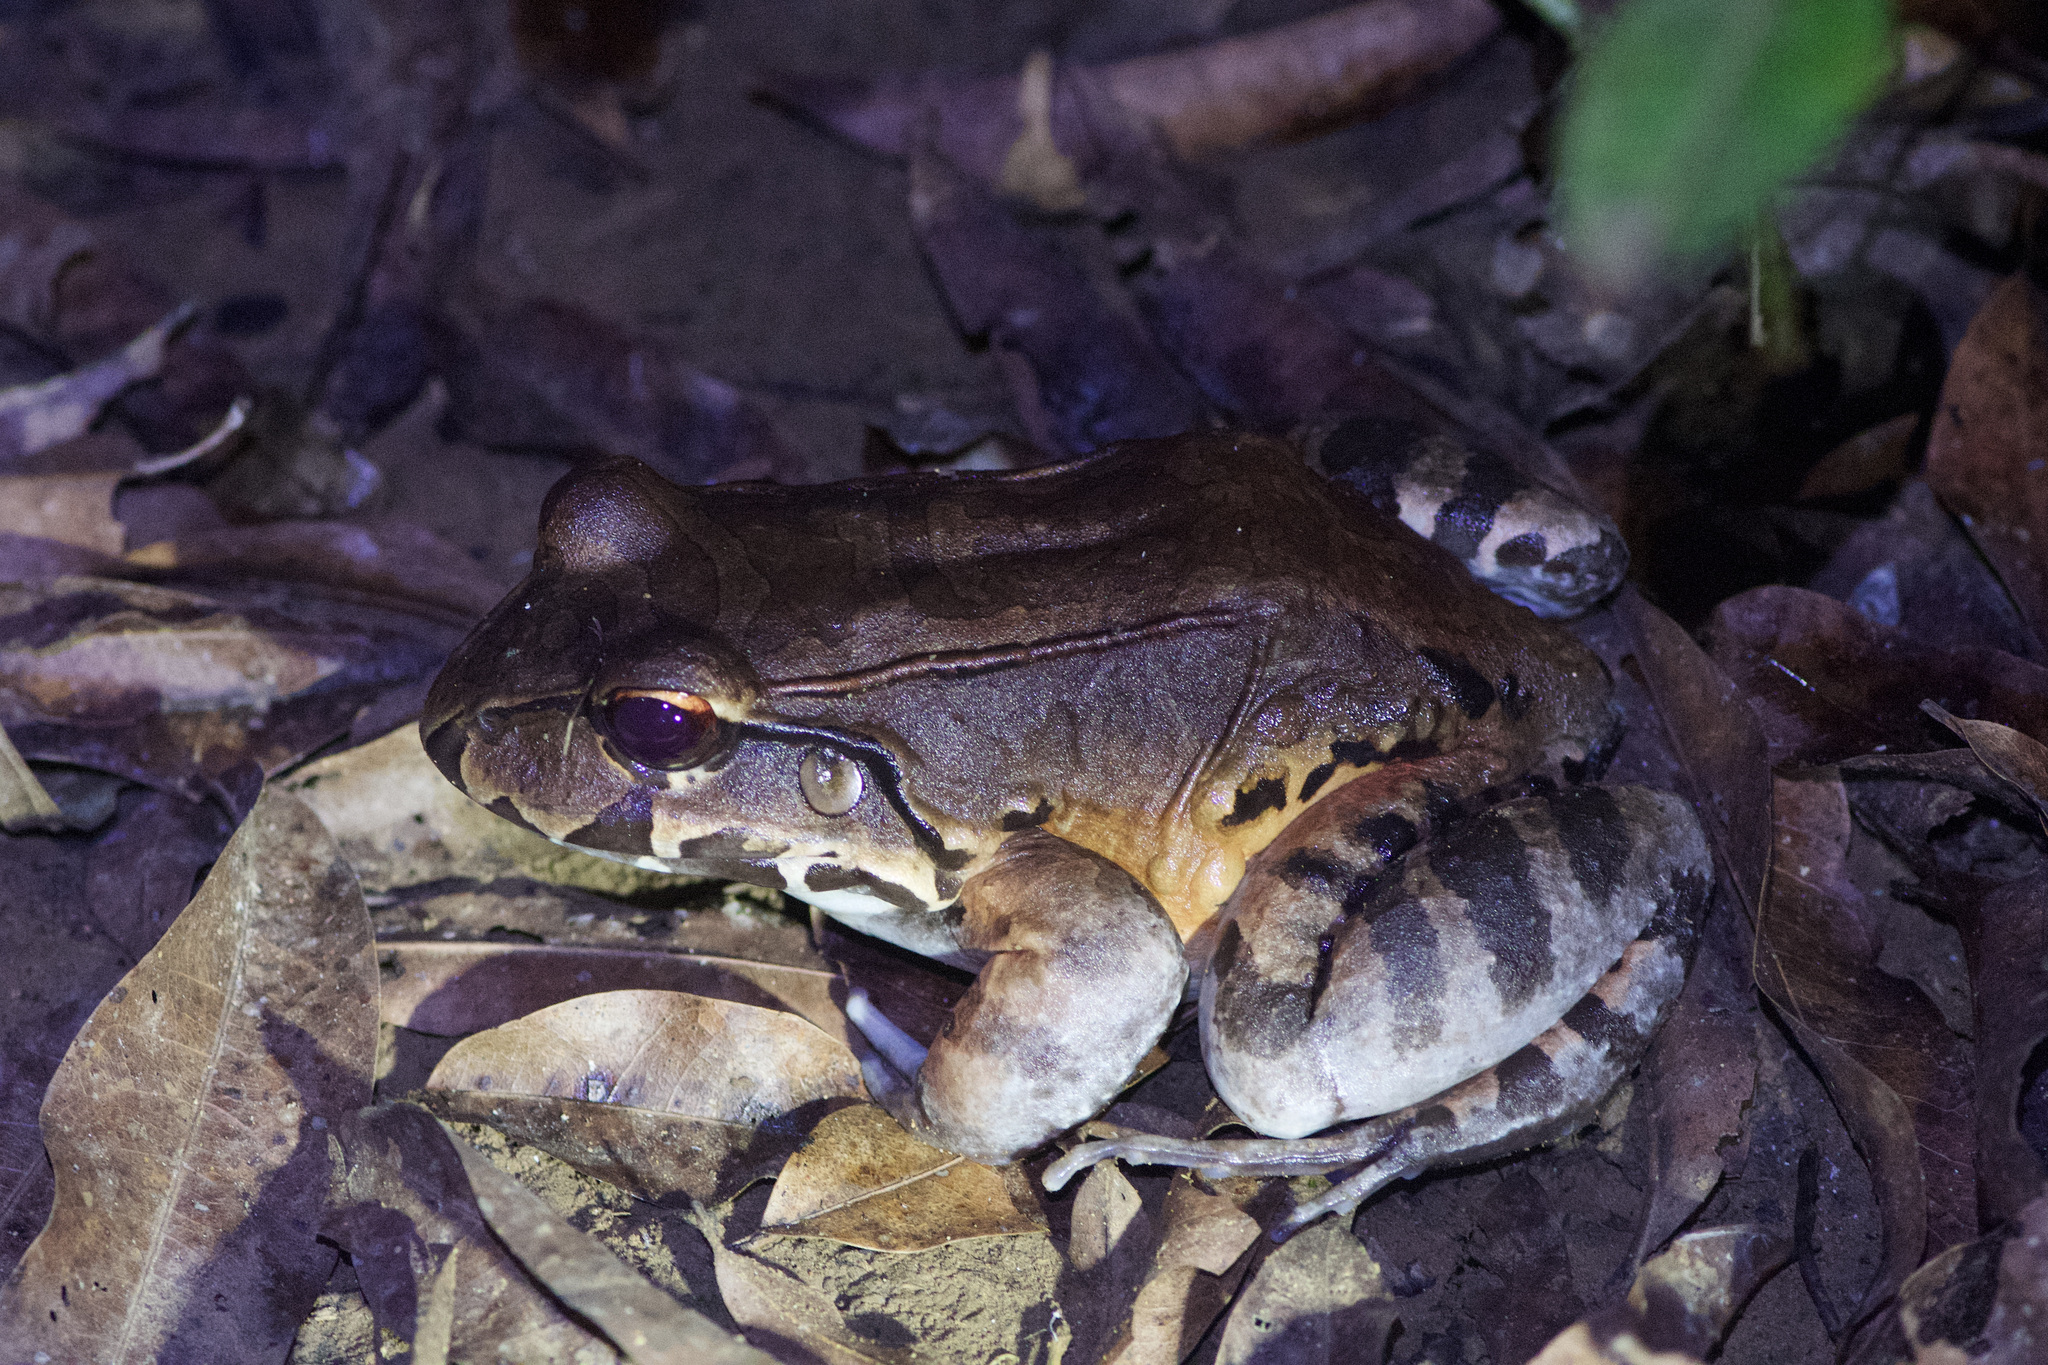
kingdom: Animalia
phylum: Chordata
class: Amphibia
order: Anura
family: Leptodactylidae
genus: Leptodactylus
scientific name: Leptodactylus savagei
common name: Savage's thin-toed frog
